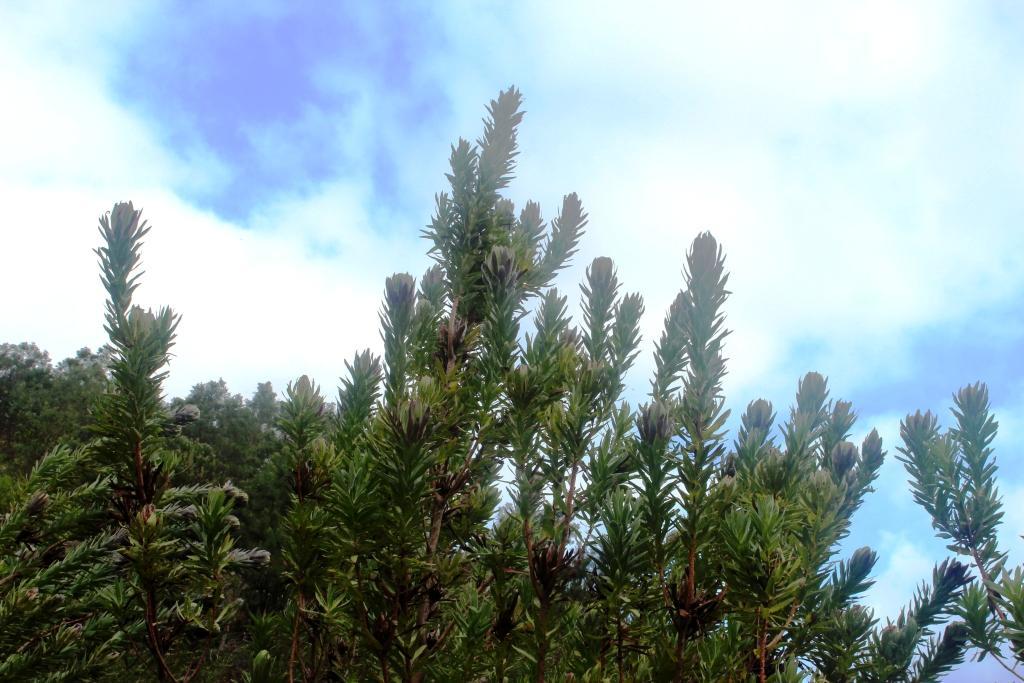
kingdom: Plantae
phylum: Tracheophyta
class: Magnoliopsida
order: Proteales
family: Proteaceae
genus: Protea
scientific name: Protea coronata
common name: Green sugarbush
